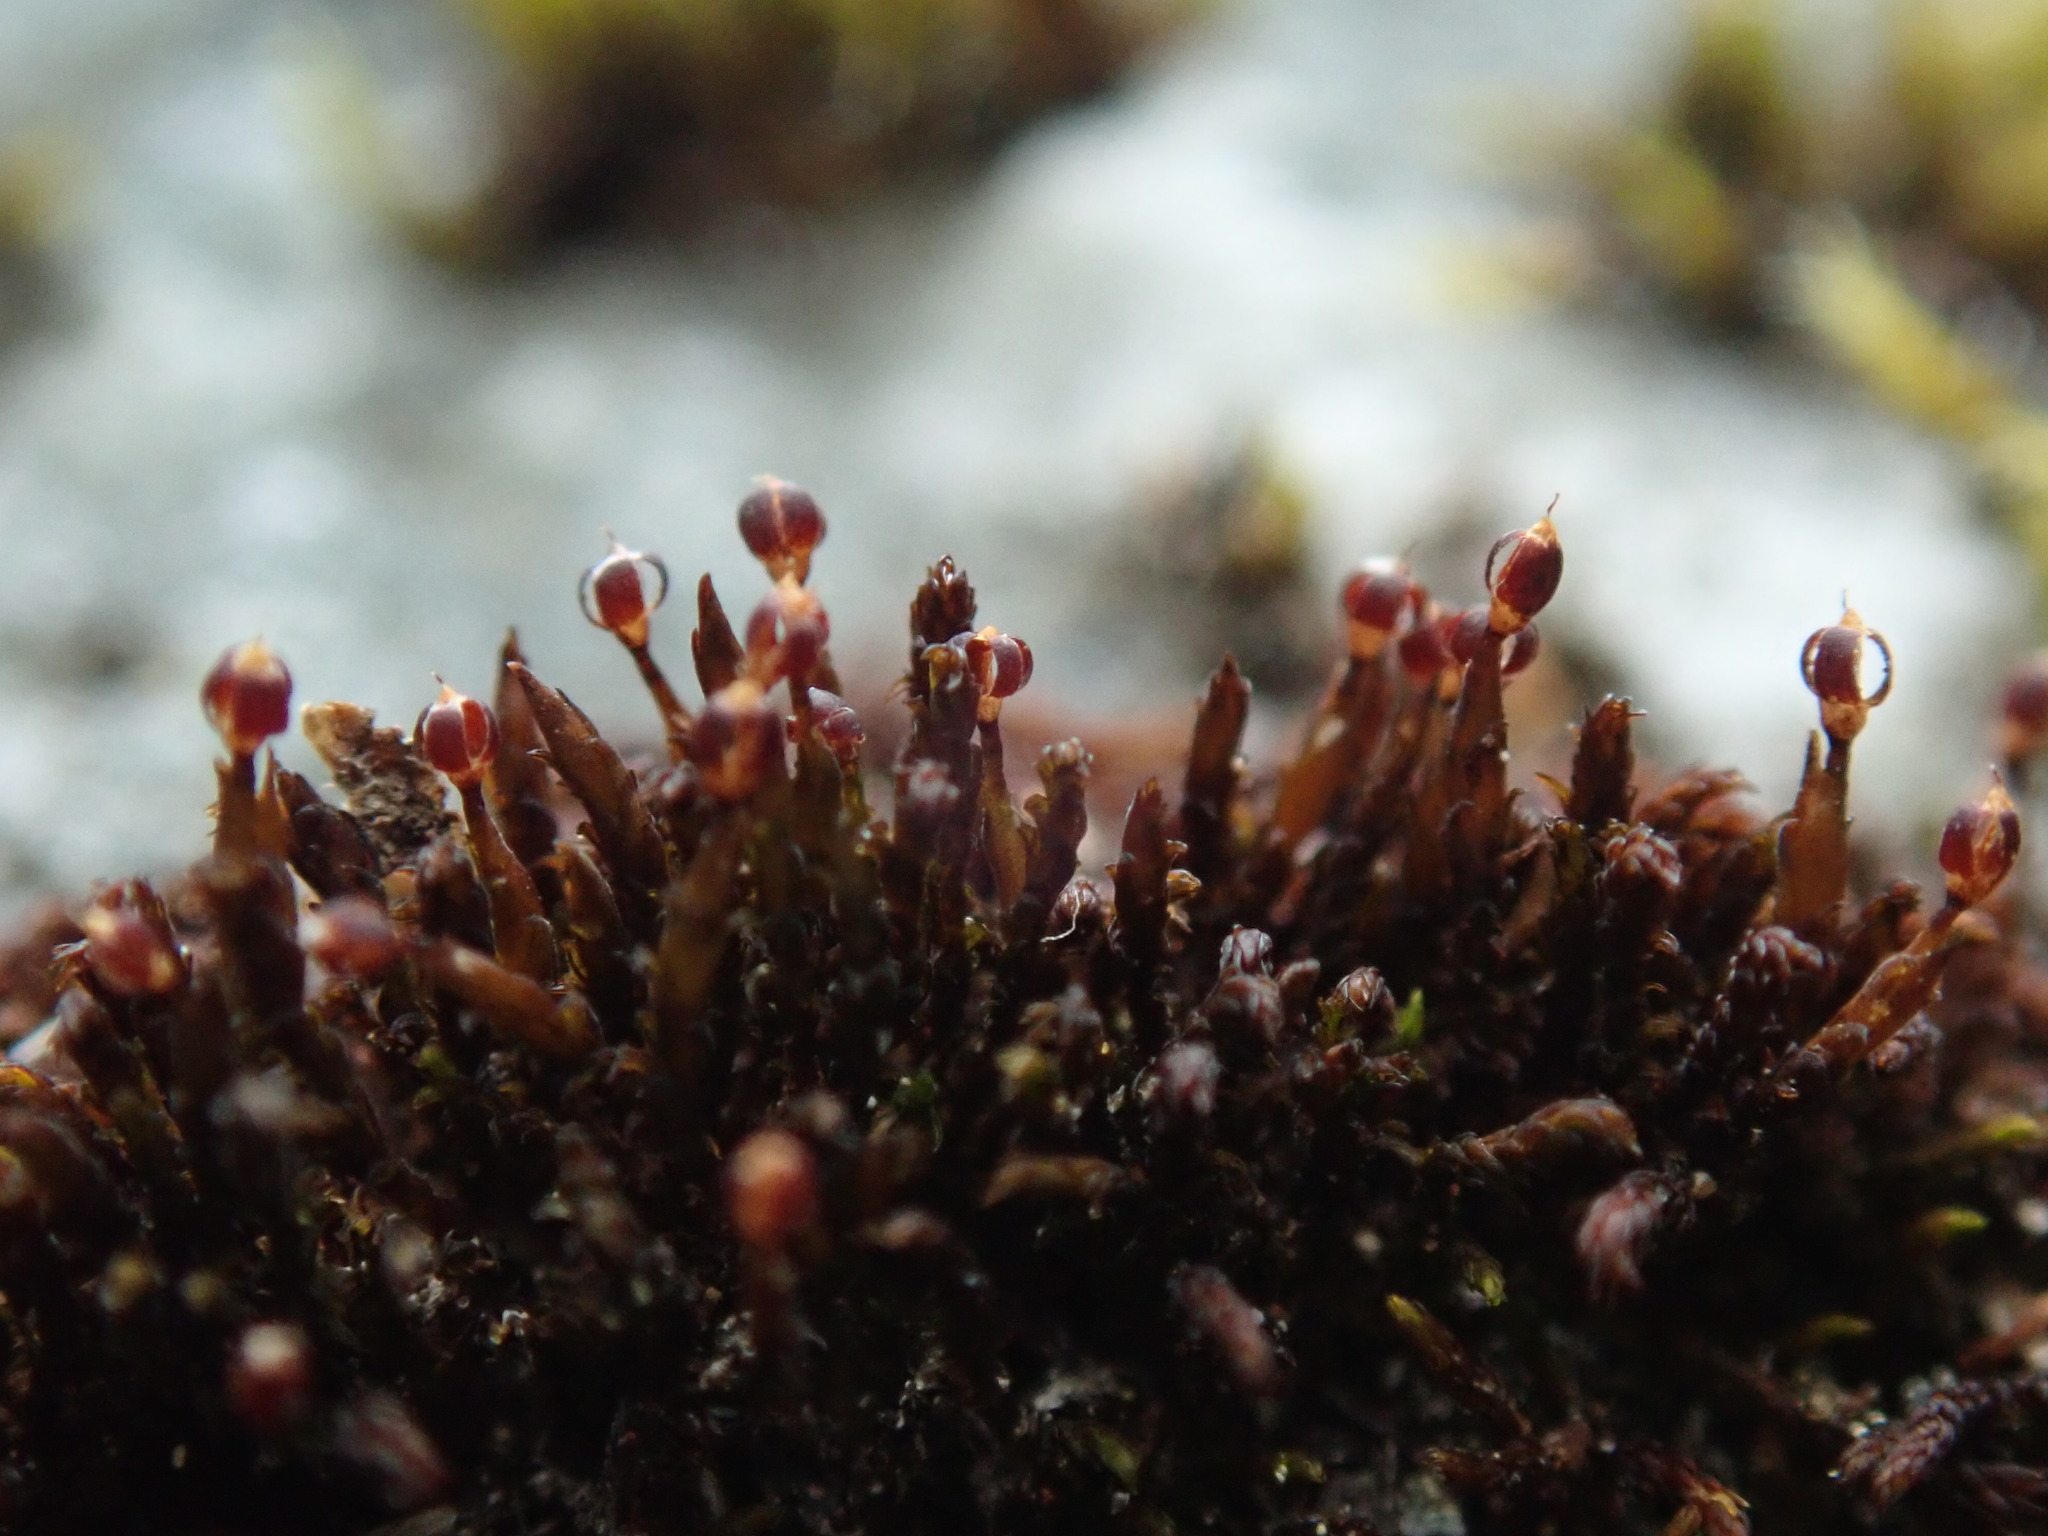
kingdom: Plantae
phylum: Bryophyta
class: Andreaeopsida
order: Andreaeales
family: Andreaeaceae
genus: Andreaea
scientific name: Andreaea rupestris
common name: Black rock moss
